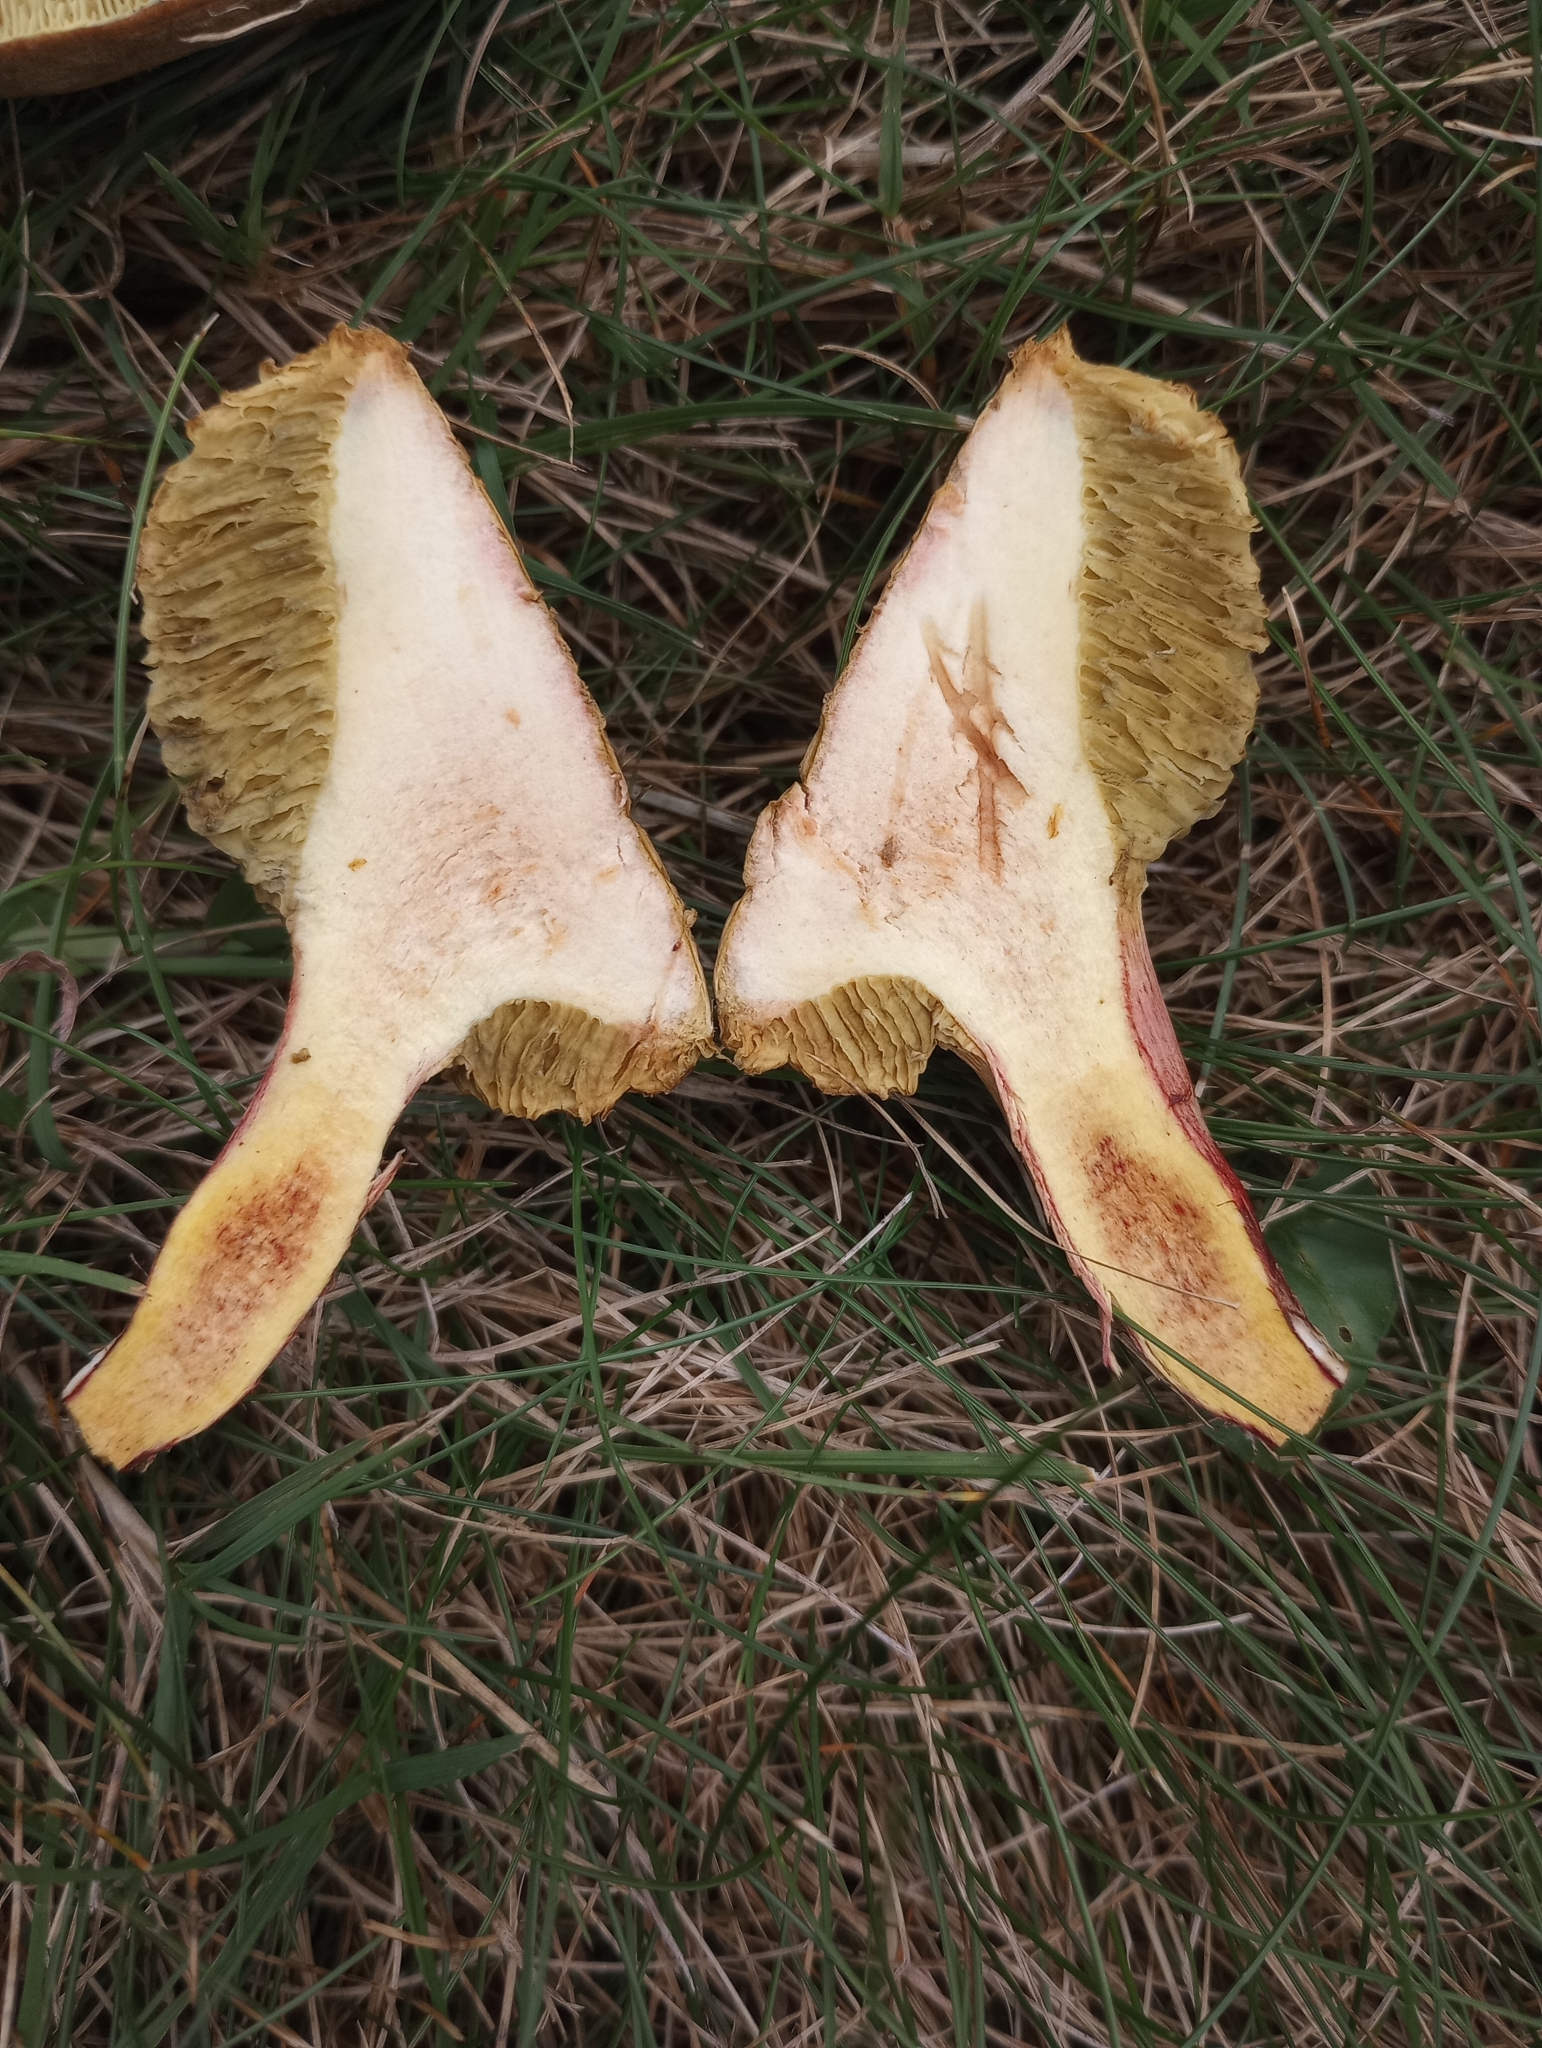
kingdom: Fungi
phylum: Basidiomycota
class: Agaricomycetes
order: Boletales
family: Boletaceae
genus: Xerocomellus
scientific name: Xerocomellus chrysenteron
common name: Red-cracking bolete
